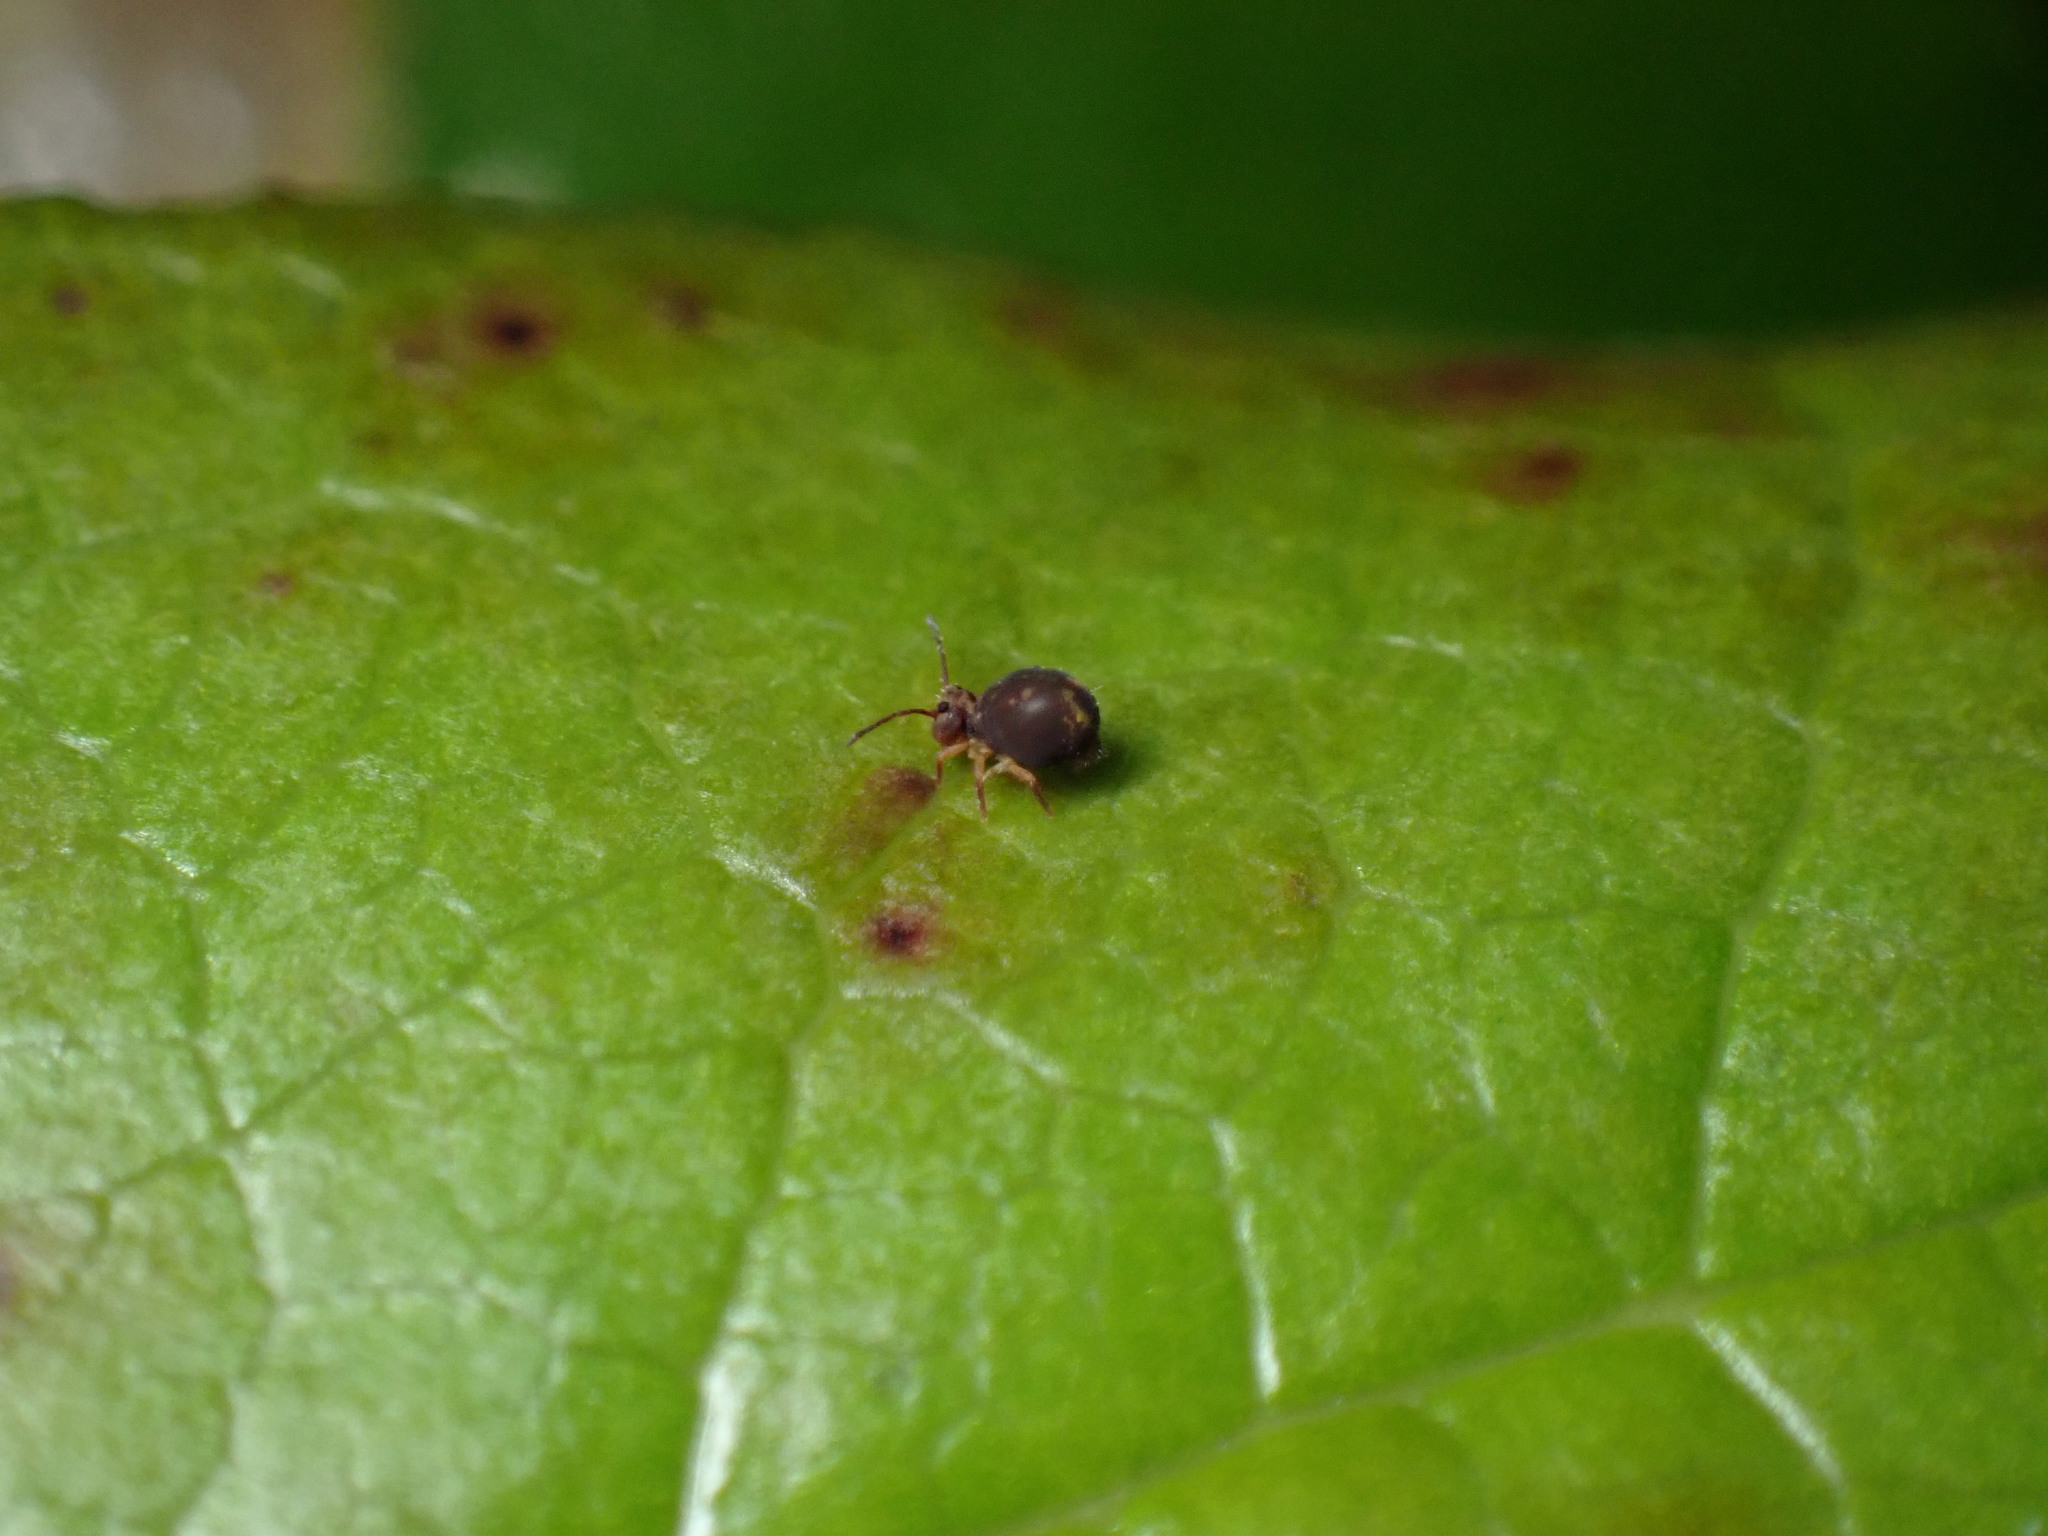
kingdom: Animalia
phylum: Arthropoda
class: Collembola
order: Symphypleona
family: Dicyrtomidae
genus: Dicyrtomina
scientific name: Dicyrtomina saundersi
